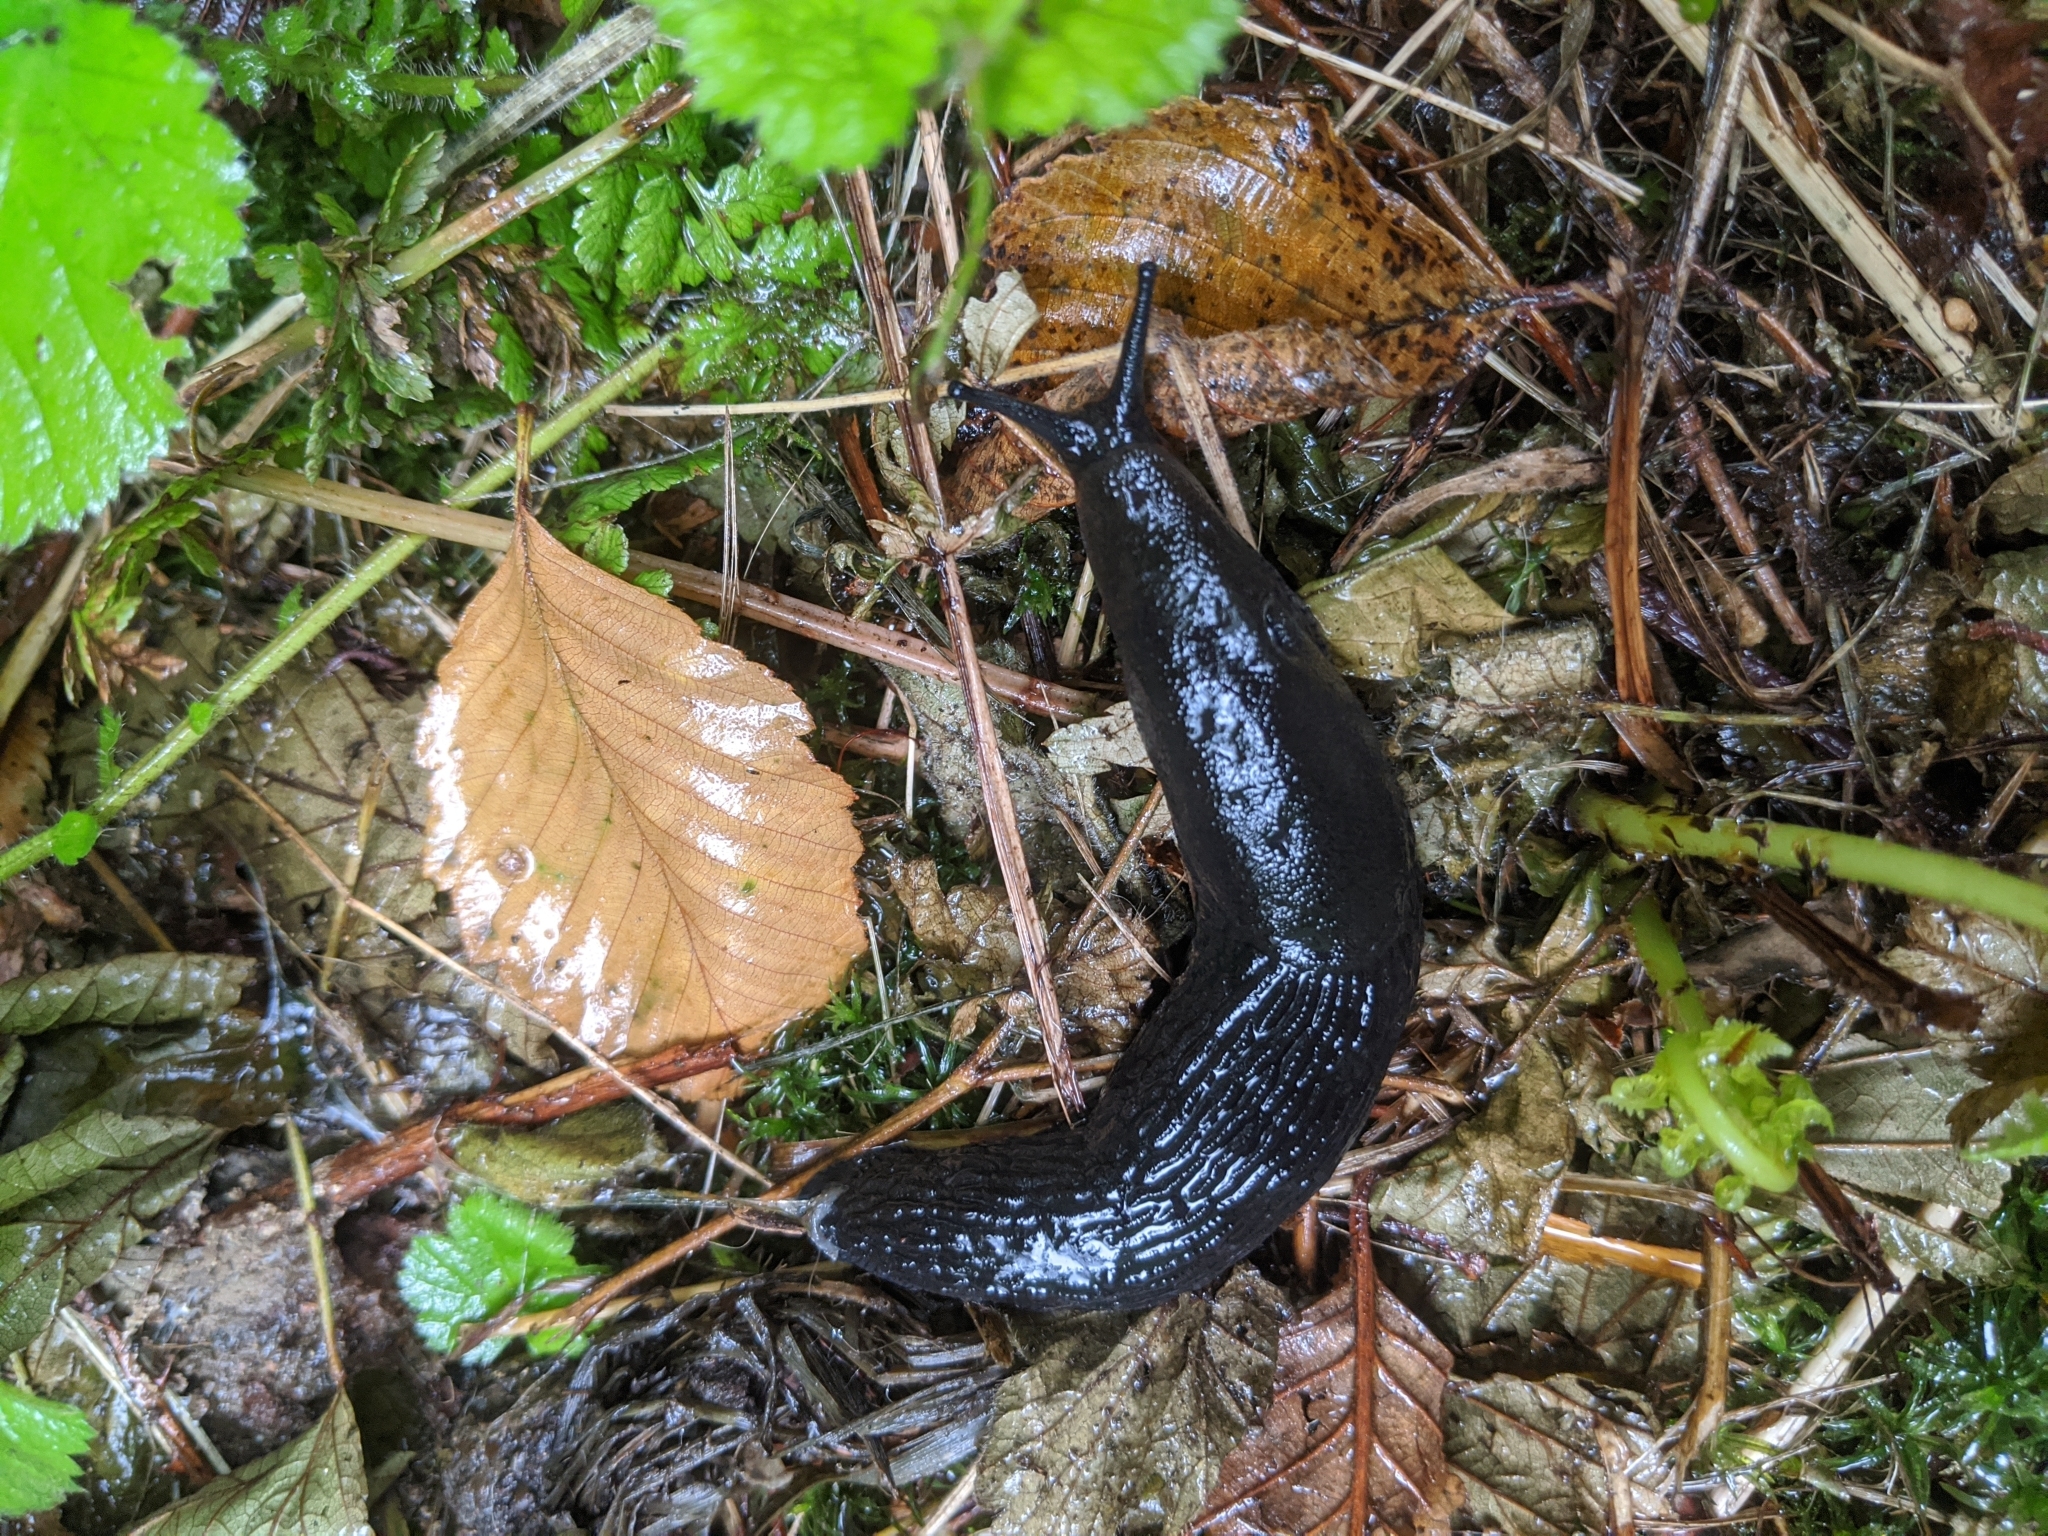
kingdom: Animalia
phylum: Mollusca
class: Gastropoda
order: Stylommatophora
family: Arionidae
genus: Arion
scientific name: Arion rufus
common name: Chocolate arion
